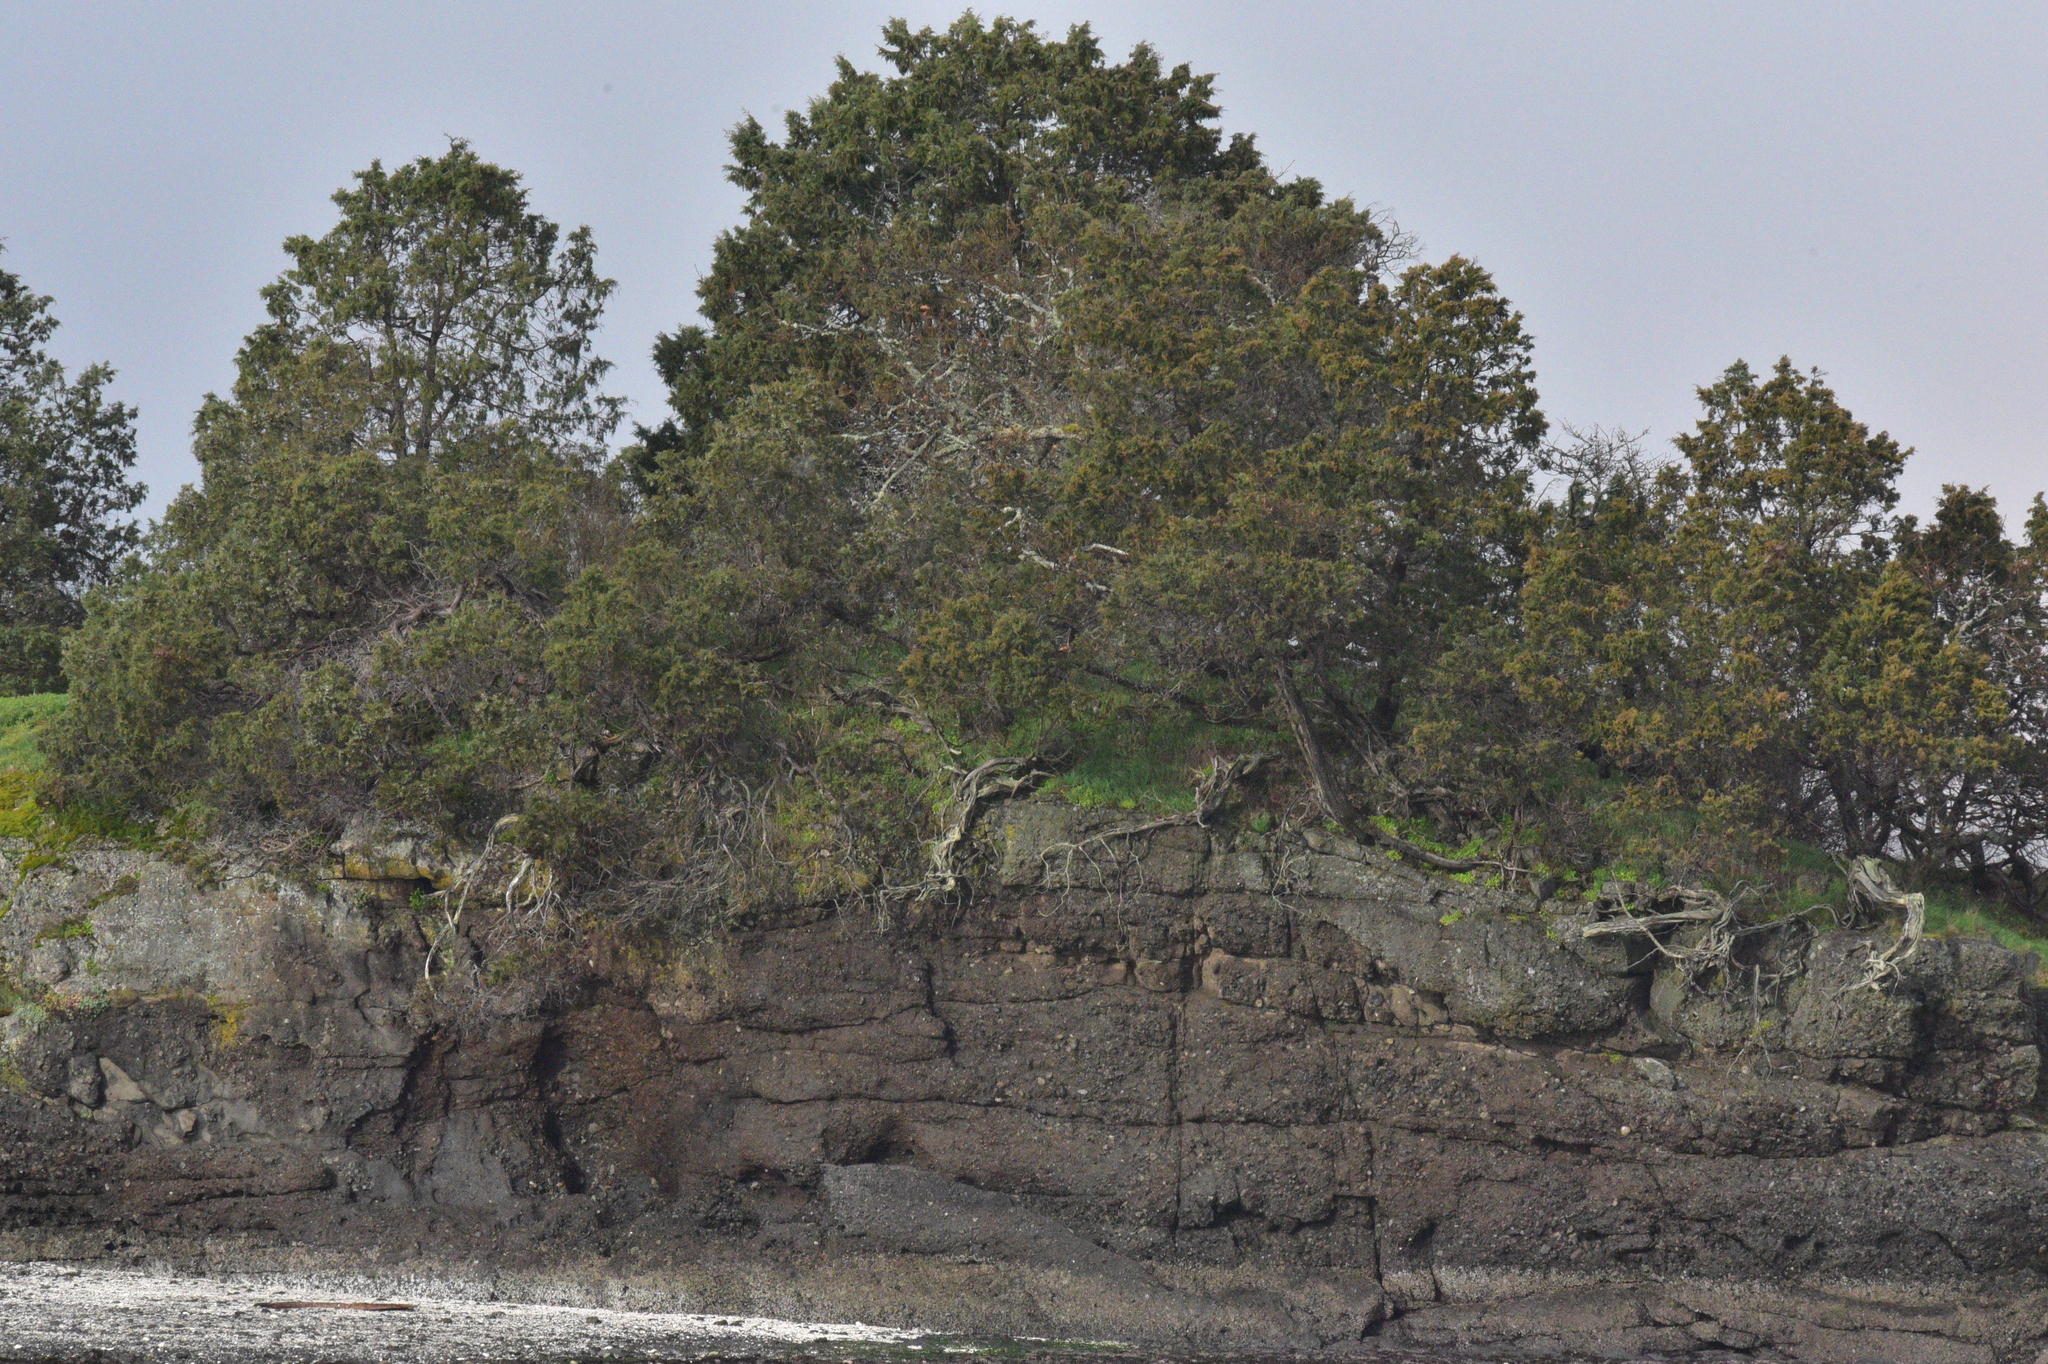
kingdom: Plantae
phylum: Tracheophyta
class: Pinopsida
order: Pinales
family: Cupressaceae
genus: Juniperus
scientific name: Juniperus scopulorum
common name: Rocky mountain juniper
